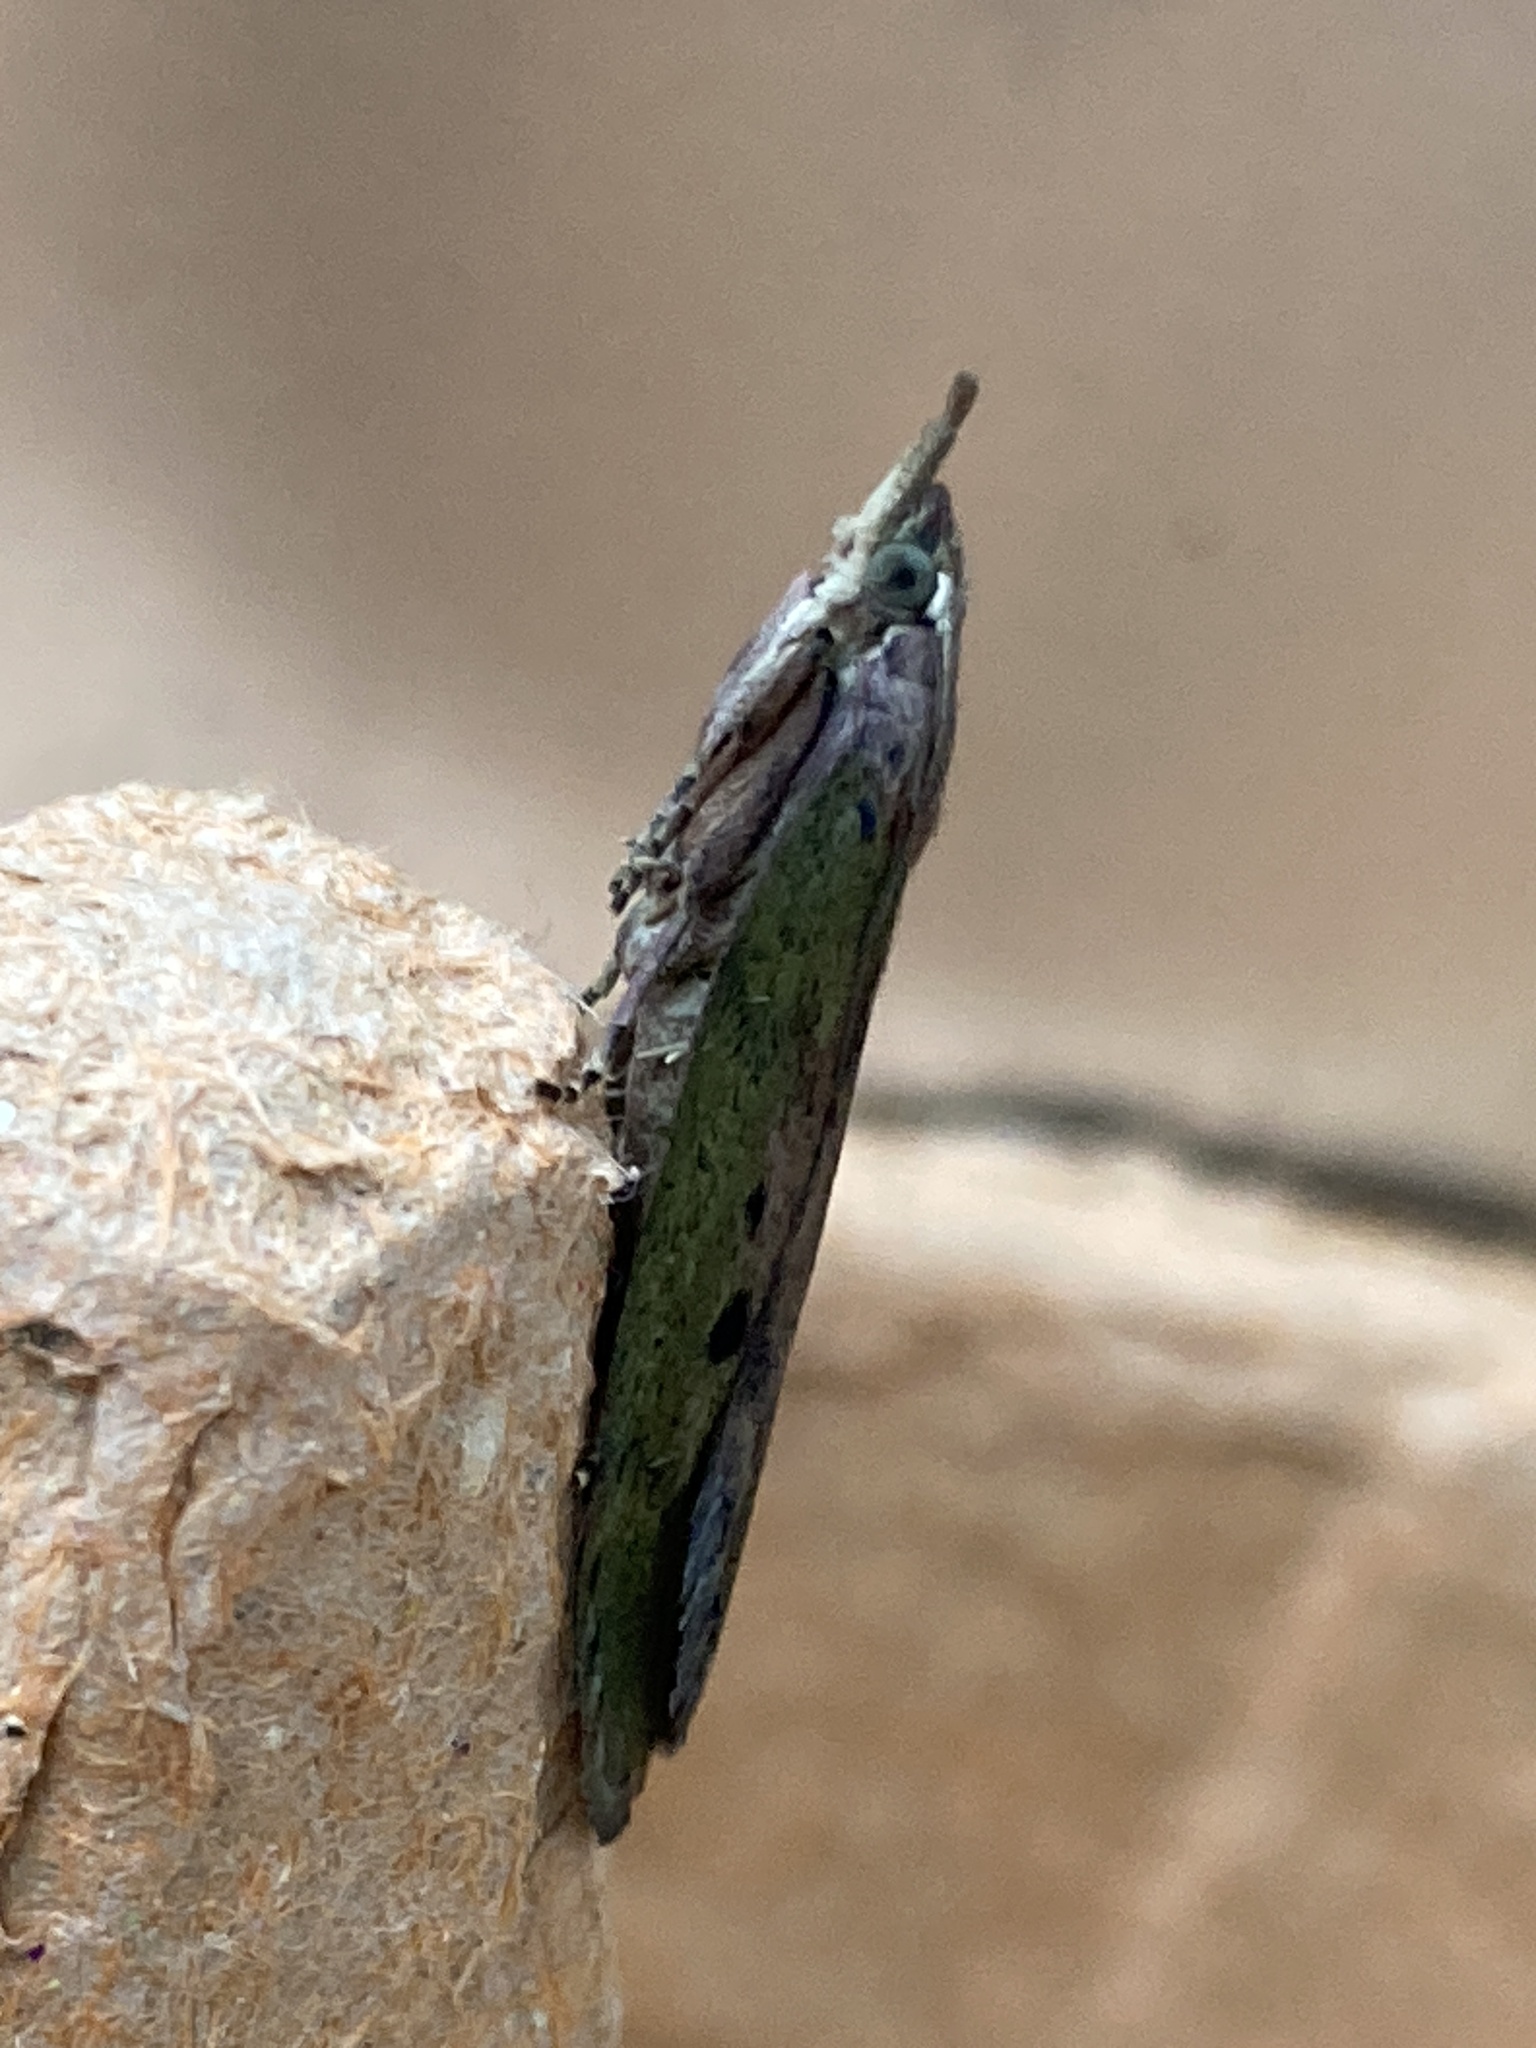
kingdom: Animalia
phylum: Arthropoda
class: Insecta
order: Lepidoptera
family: Pyralidae
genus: Aphomia
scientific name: Aphomia sociella
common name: Bee moth
